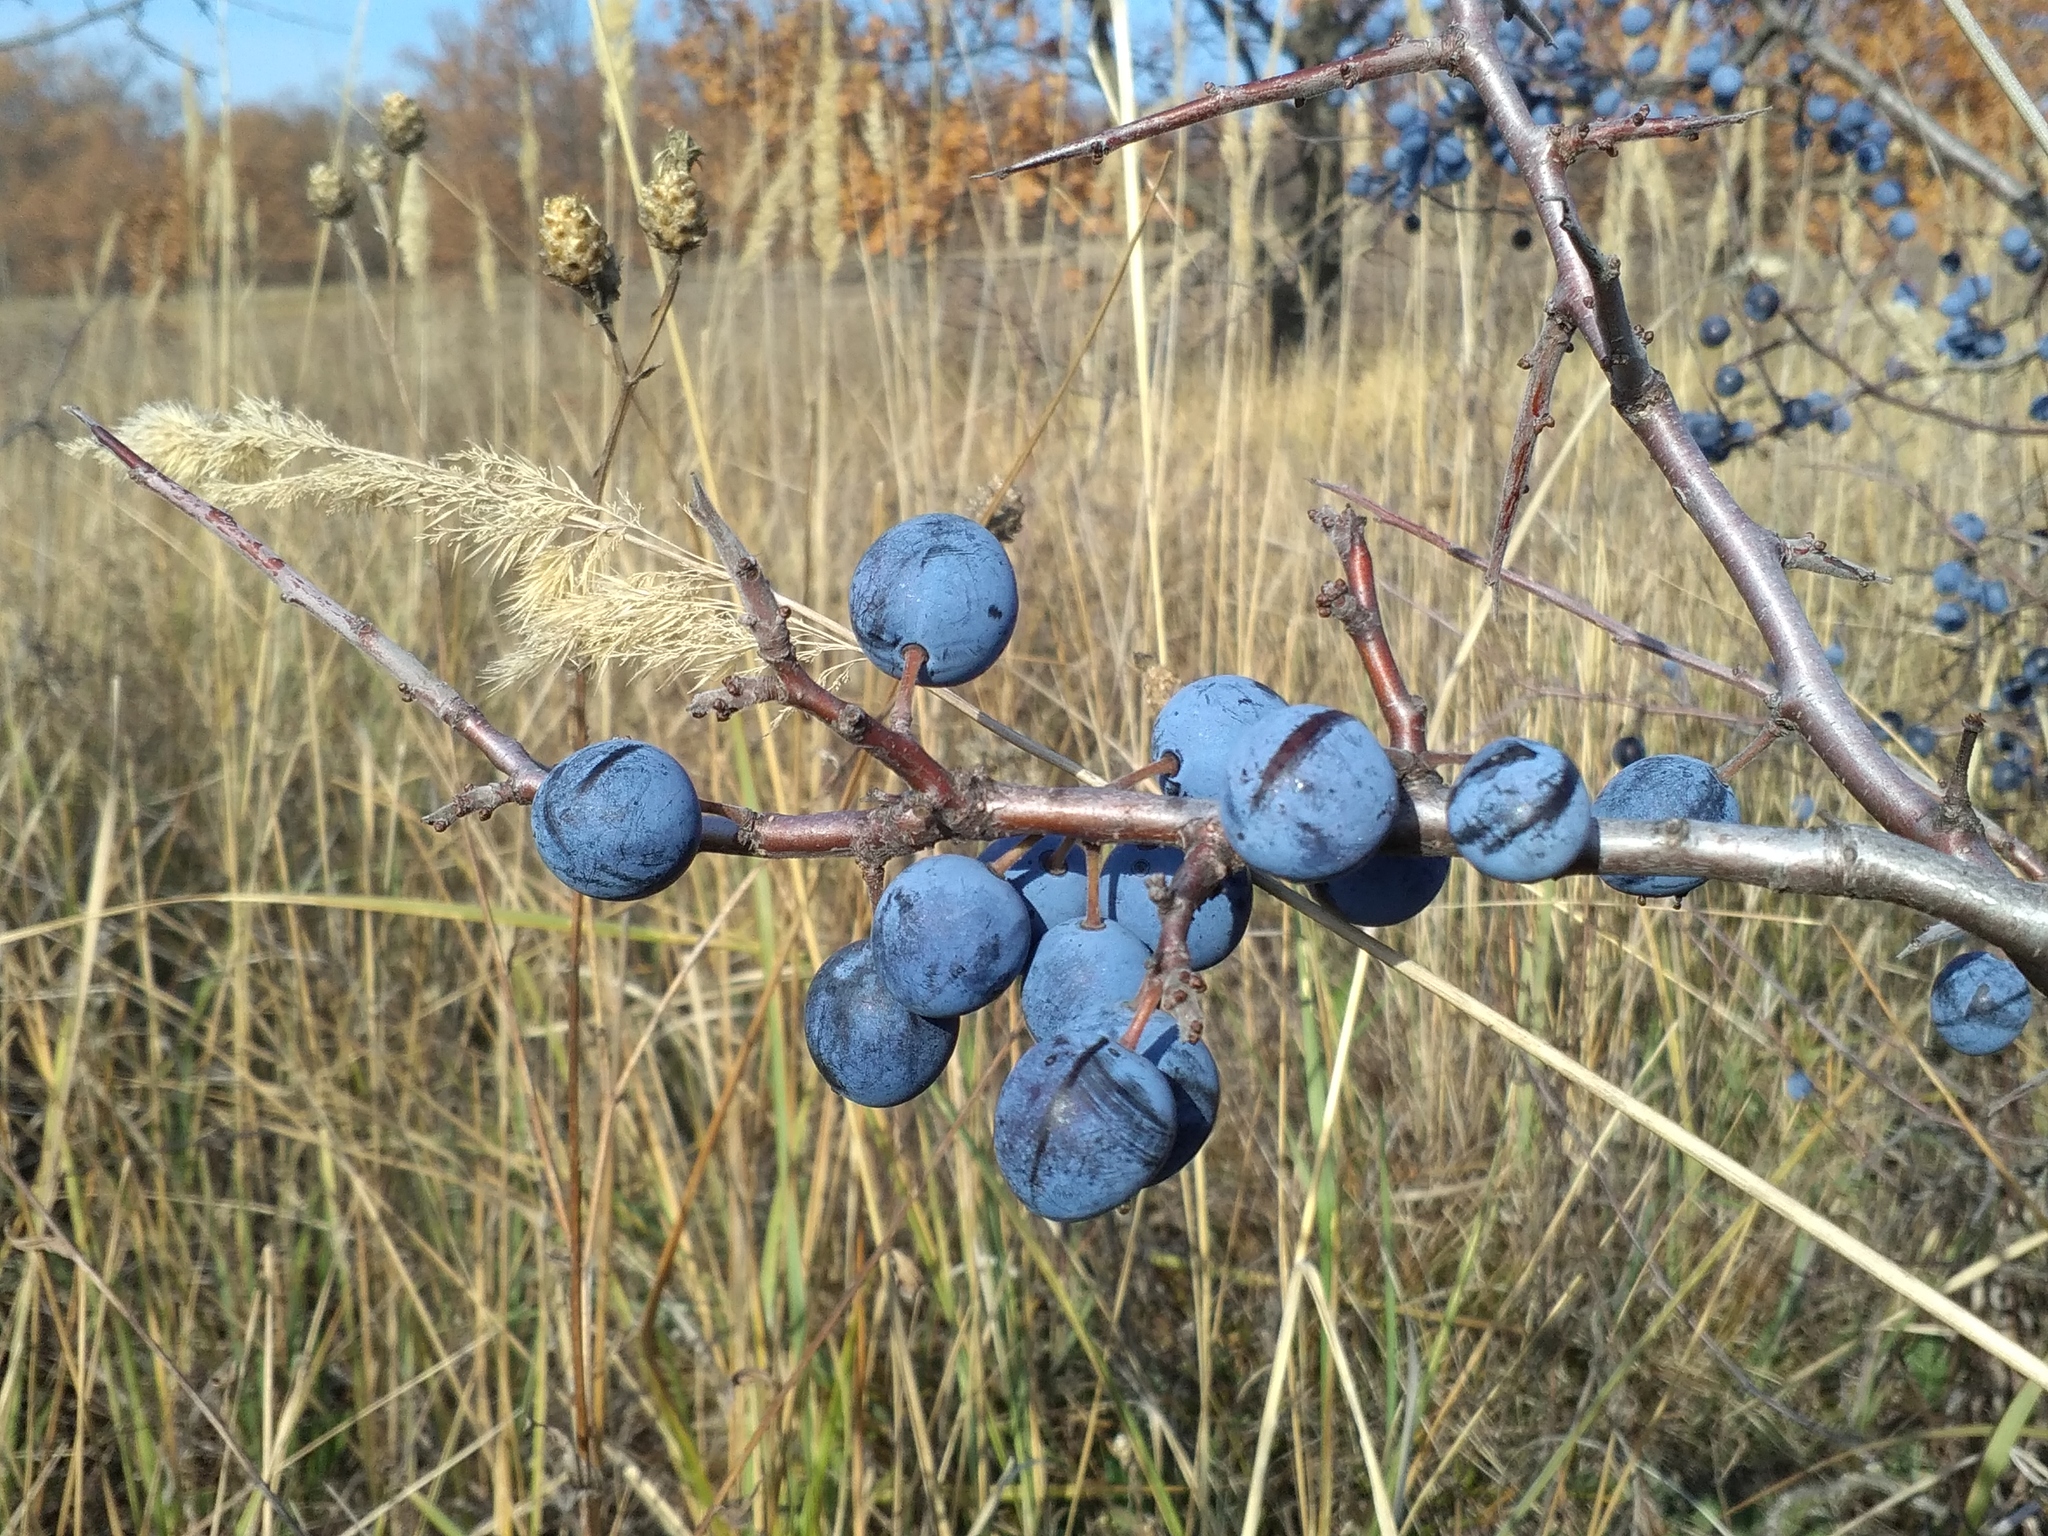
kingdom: Plantae
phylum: Tracheophyta
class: Magnoliopsida
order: Rosales
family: Rosaceae
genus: Prunus
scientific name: Prunus spinosa
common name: Blackthorn
